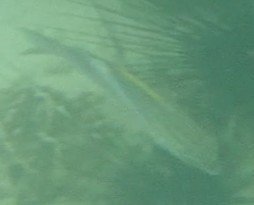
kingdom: Animalia
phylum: Chordata
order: Perciformes
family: Nemipteridae
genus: Scolopsis
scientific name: Scolopsis bilineata
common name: Two-lined monocle bream
